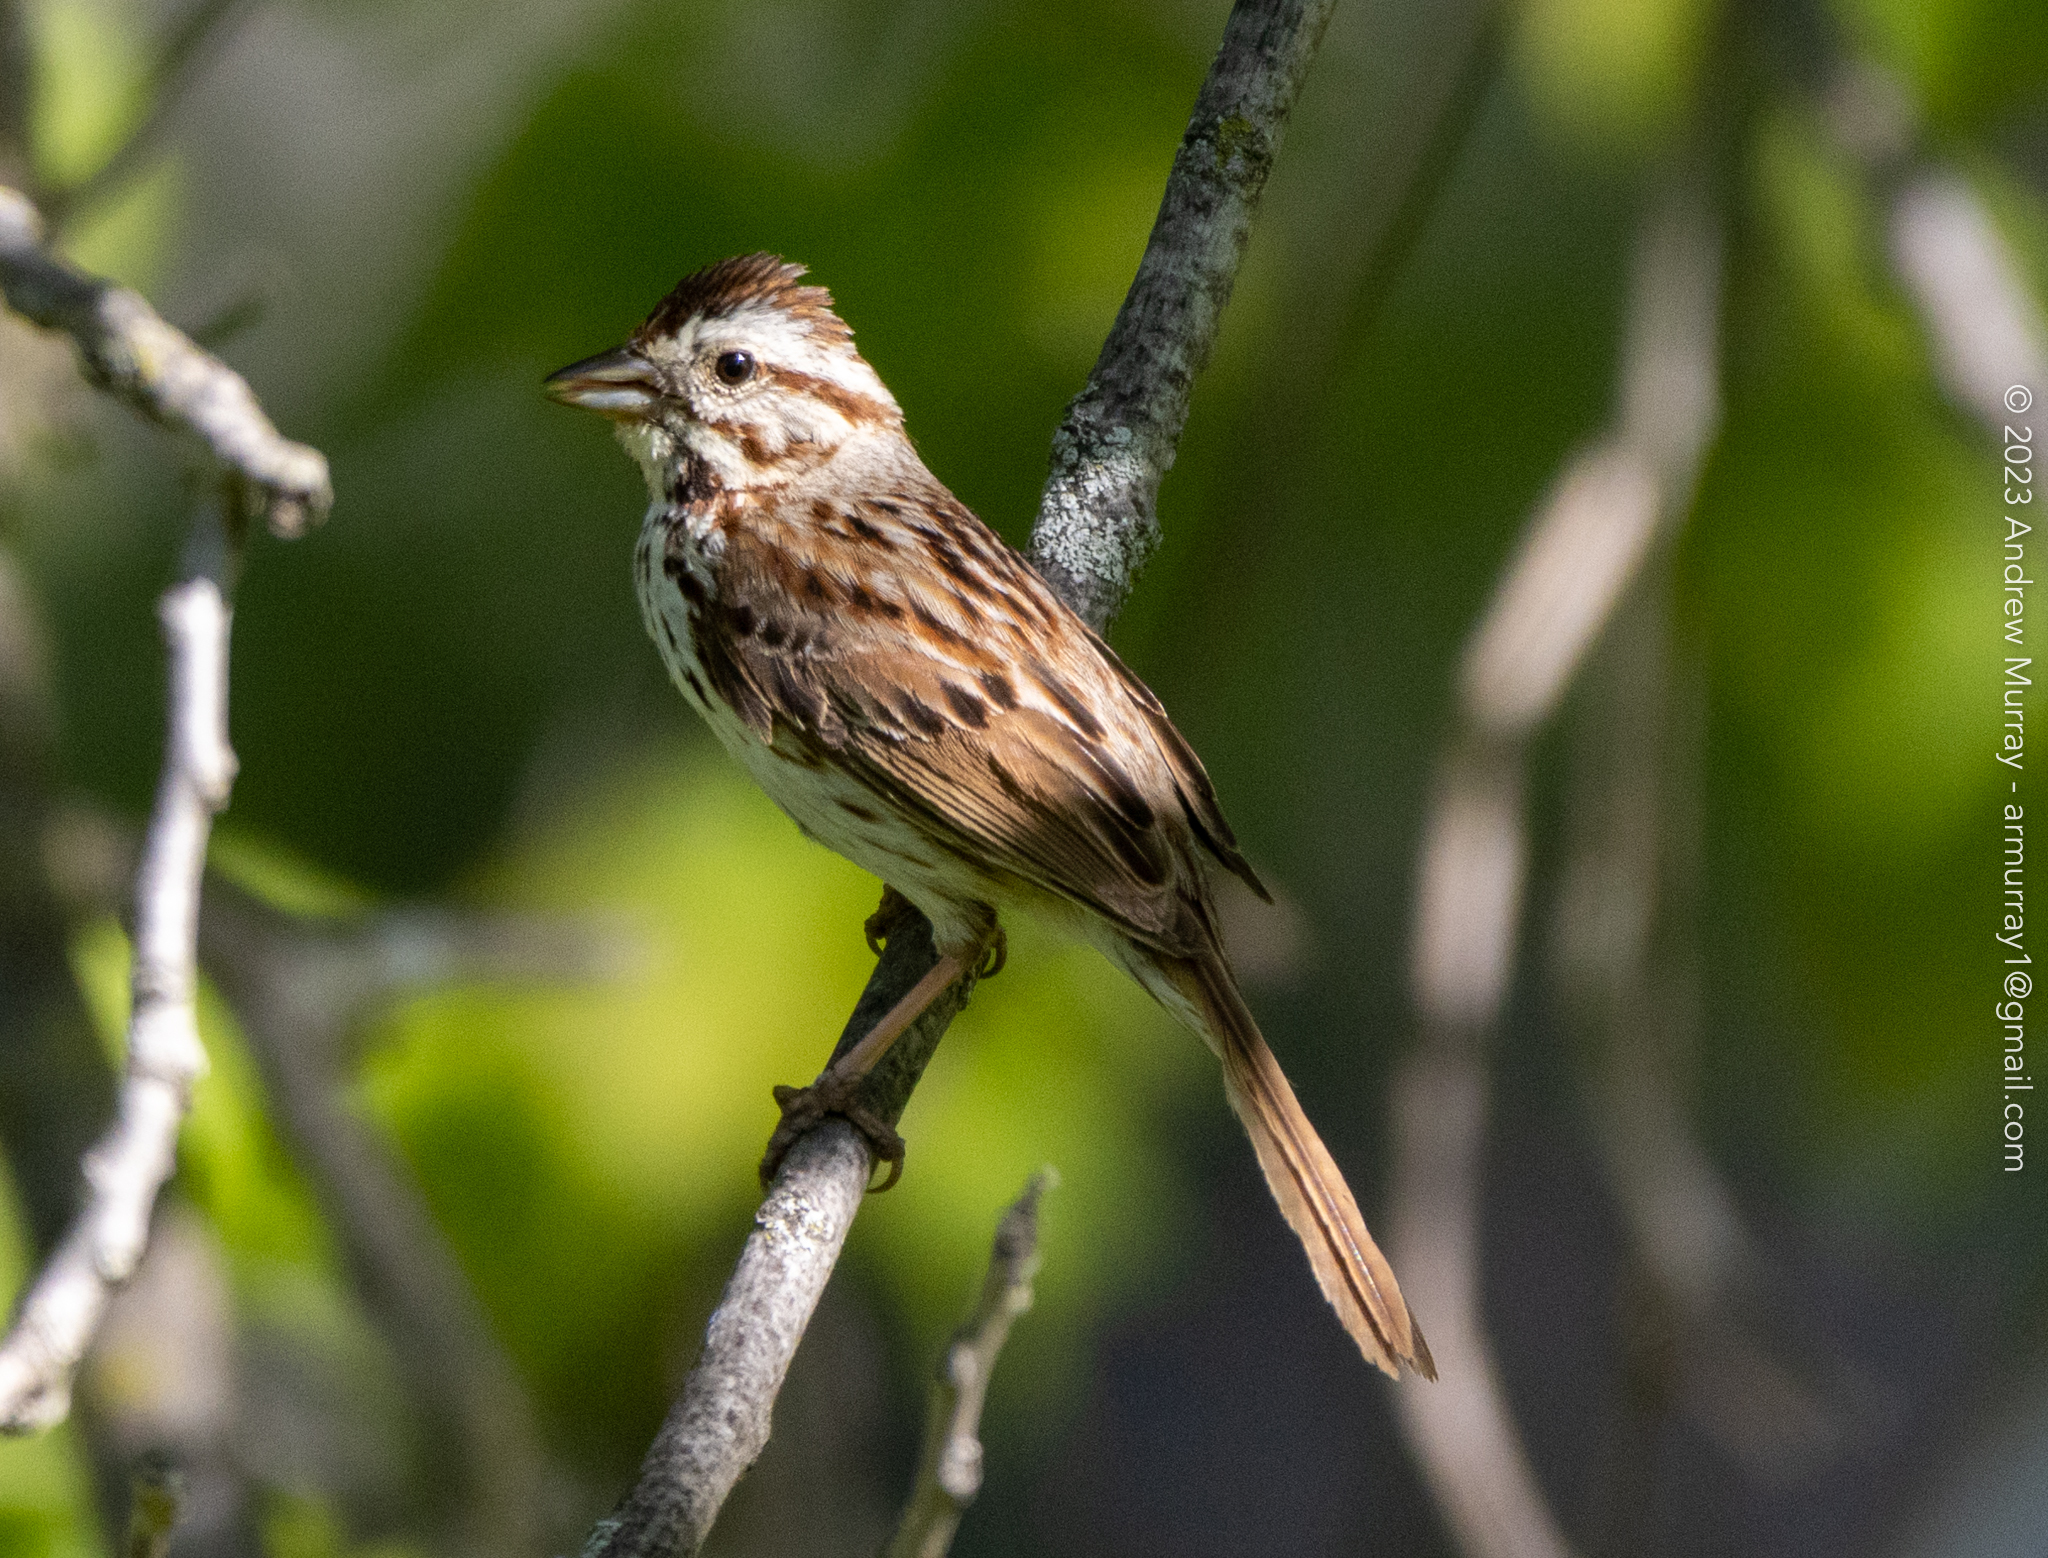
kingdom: Animalia
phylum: Chordata
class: Aves
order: Passeriformes
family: Passerellidae
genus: Melospiza
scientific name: Melospiza melodia
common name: Song sparrow
